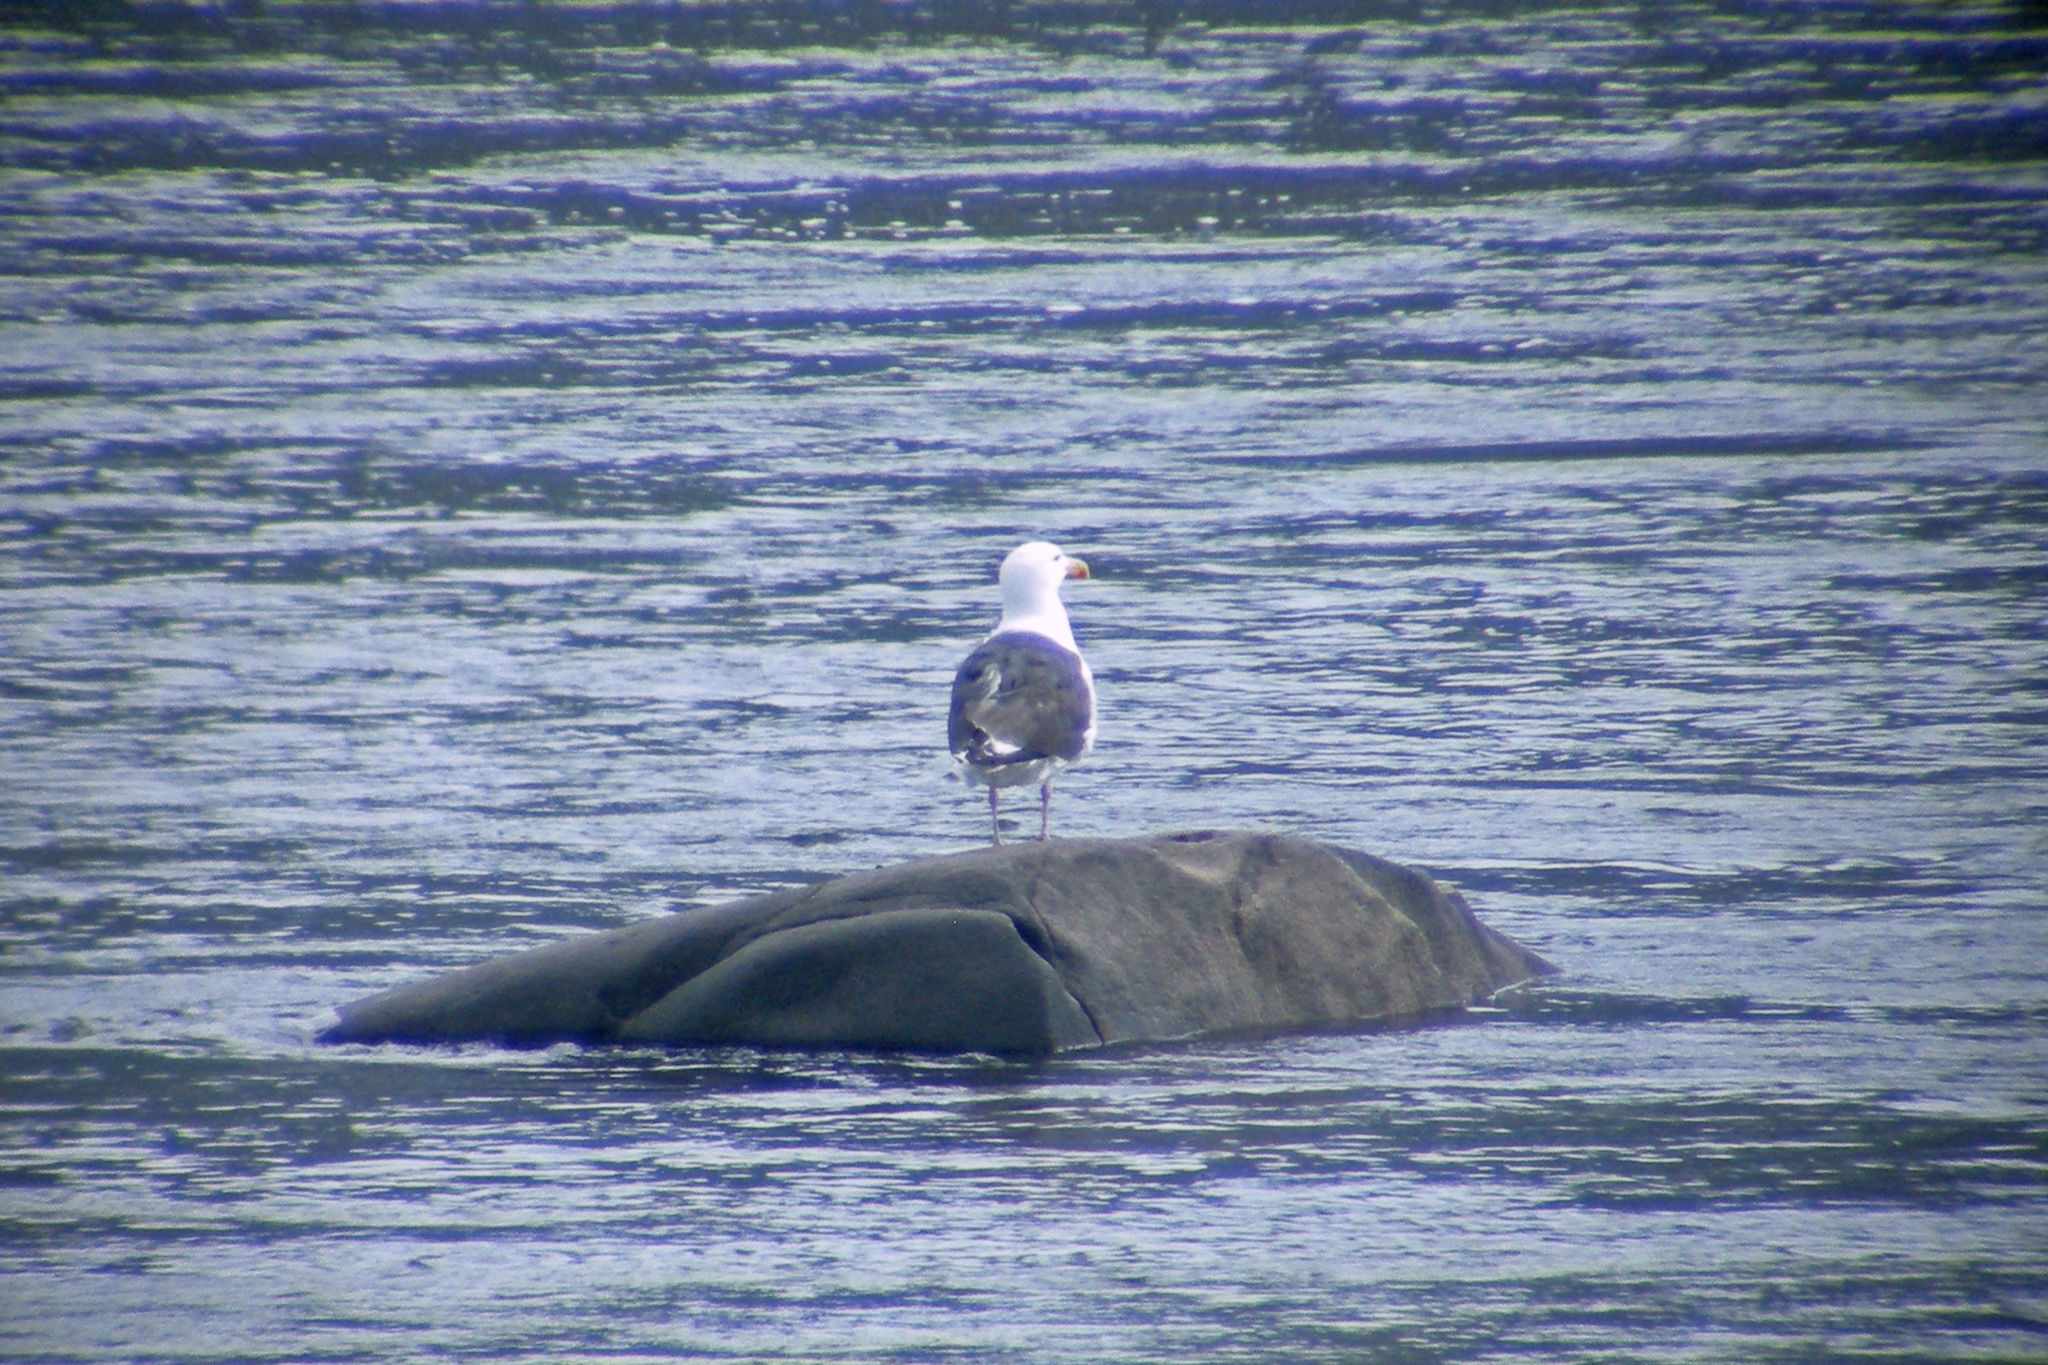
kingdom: Animalia
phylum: Chordata
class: Aves
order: Charadriiformes
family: Laridae
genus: Larus
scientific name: Larus marinus
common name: Great black-backed gull
